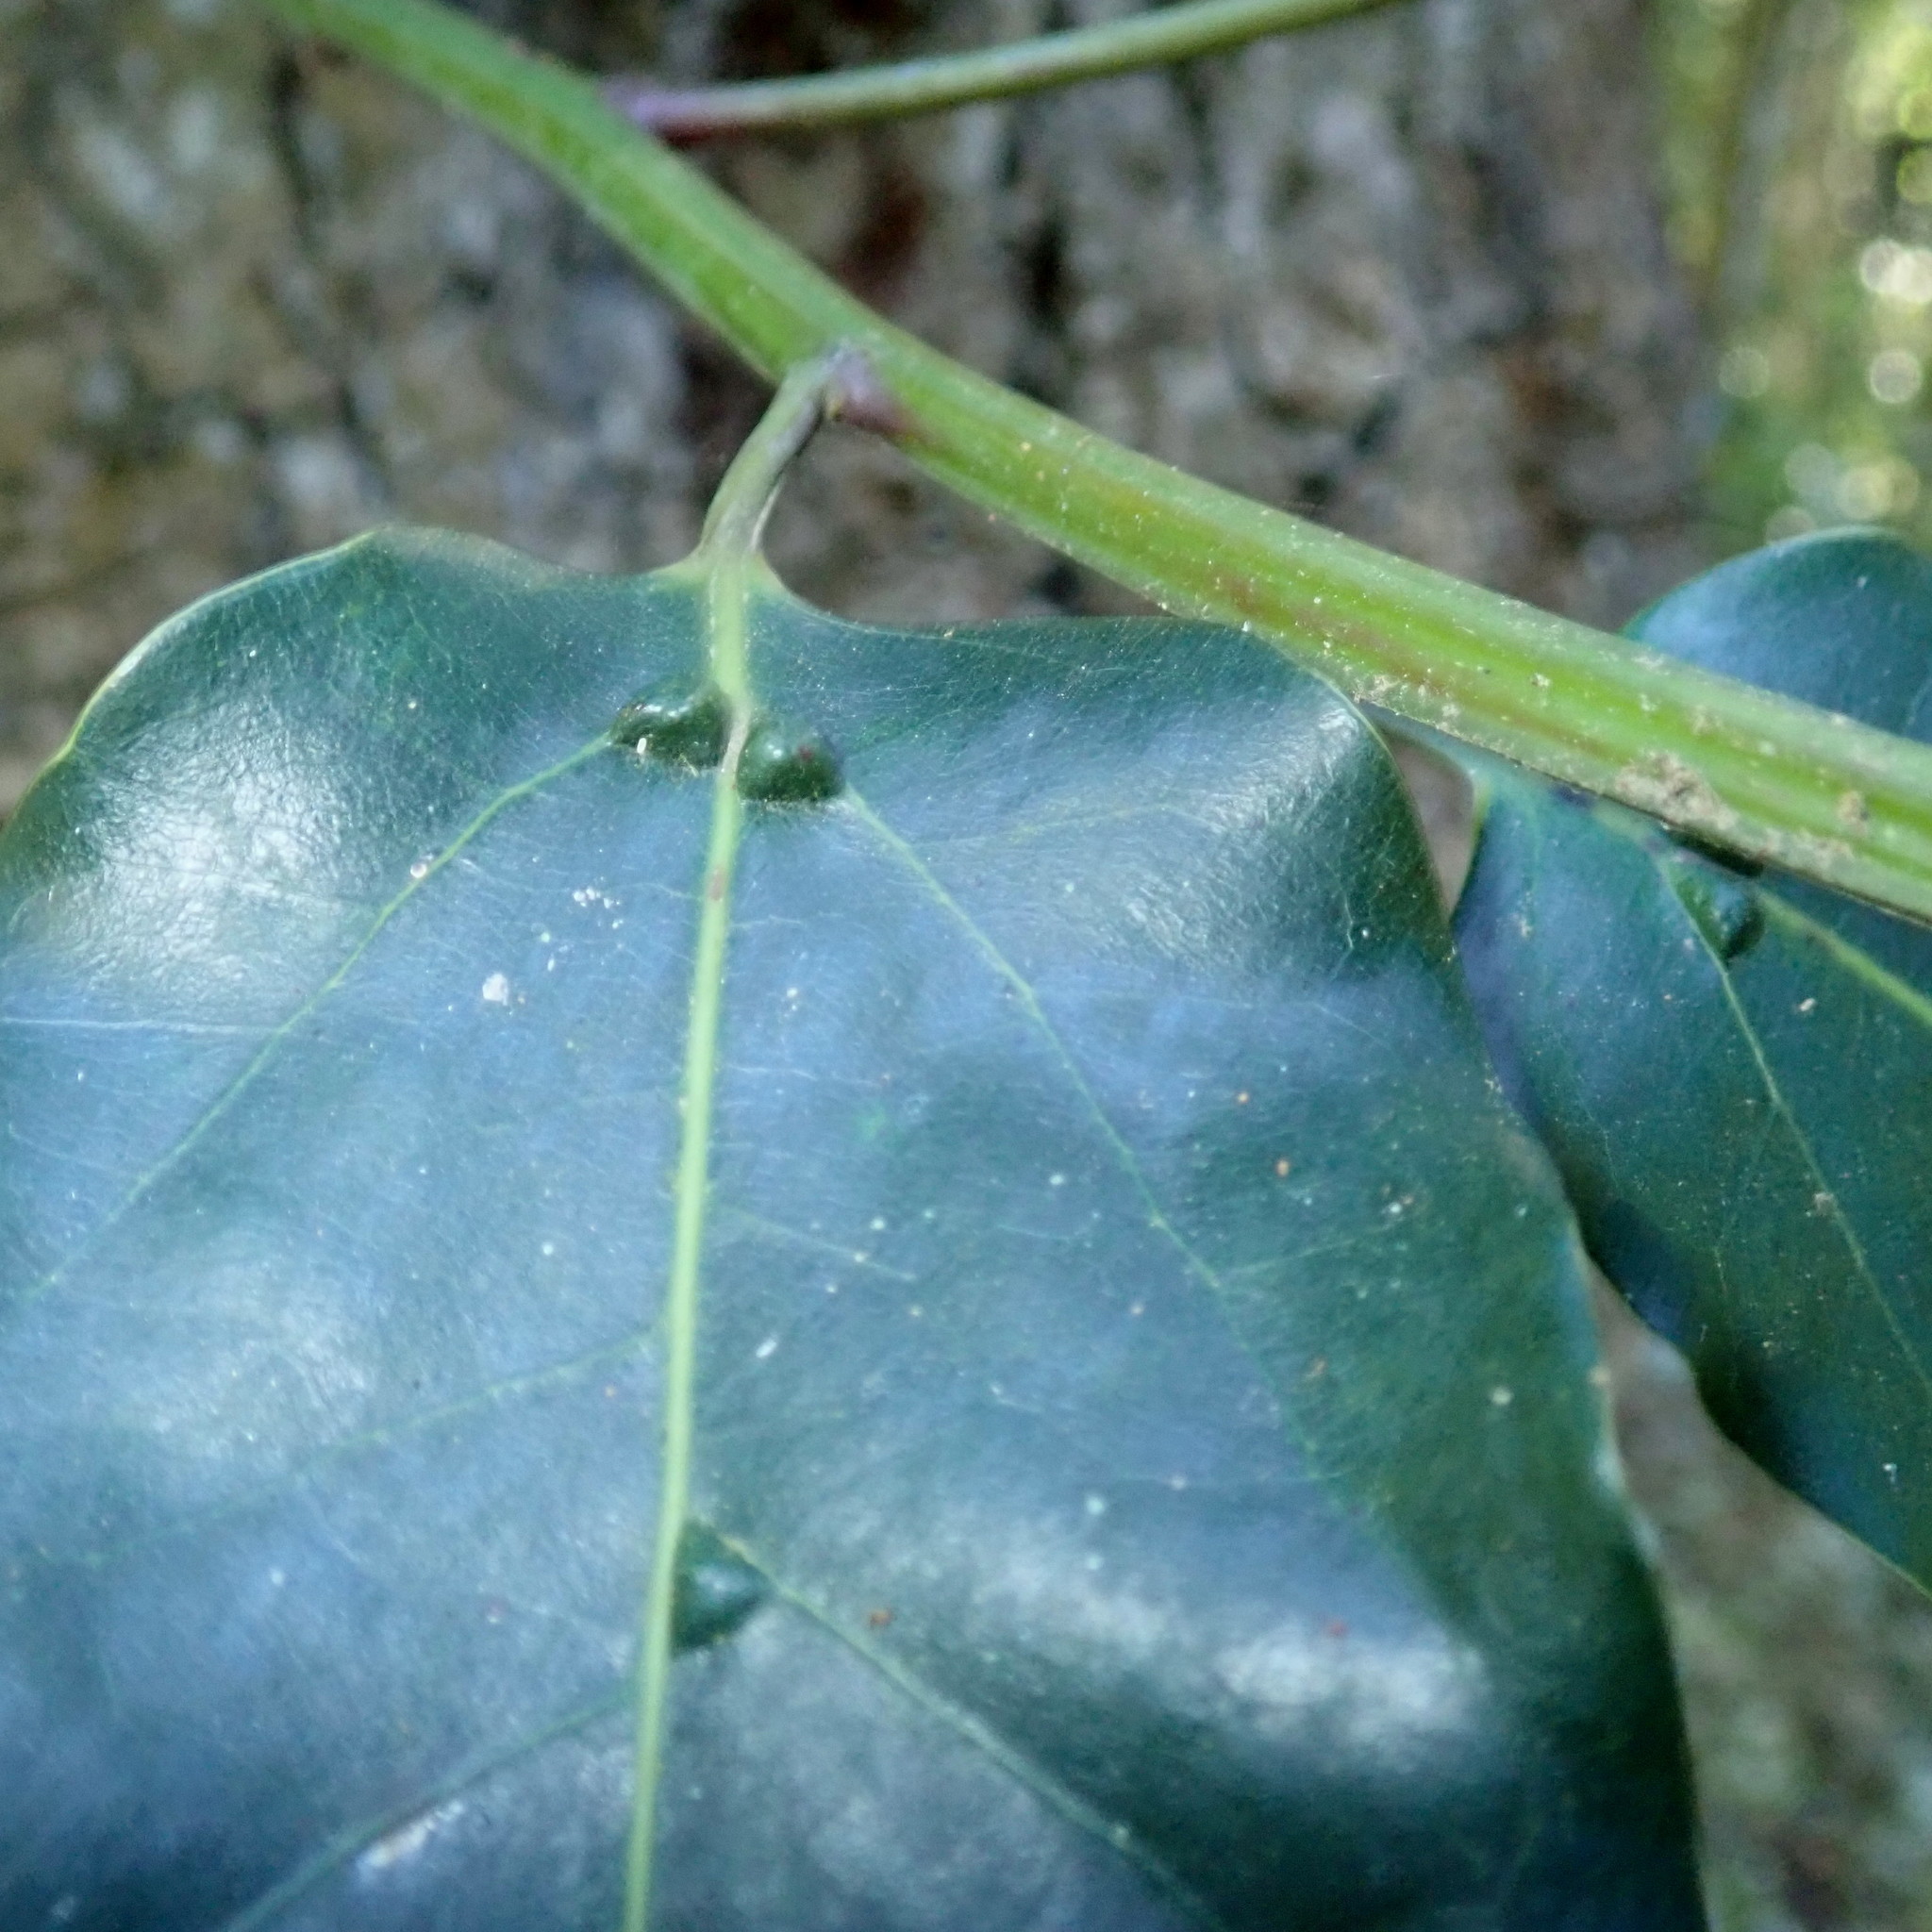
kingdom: Plantae
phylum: Tracheophyta
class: Magnoliopsida
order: Laurales
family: Lauraceae
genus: Ocotea
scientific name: Ocotea bullata
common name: Black stinkwood
